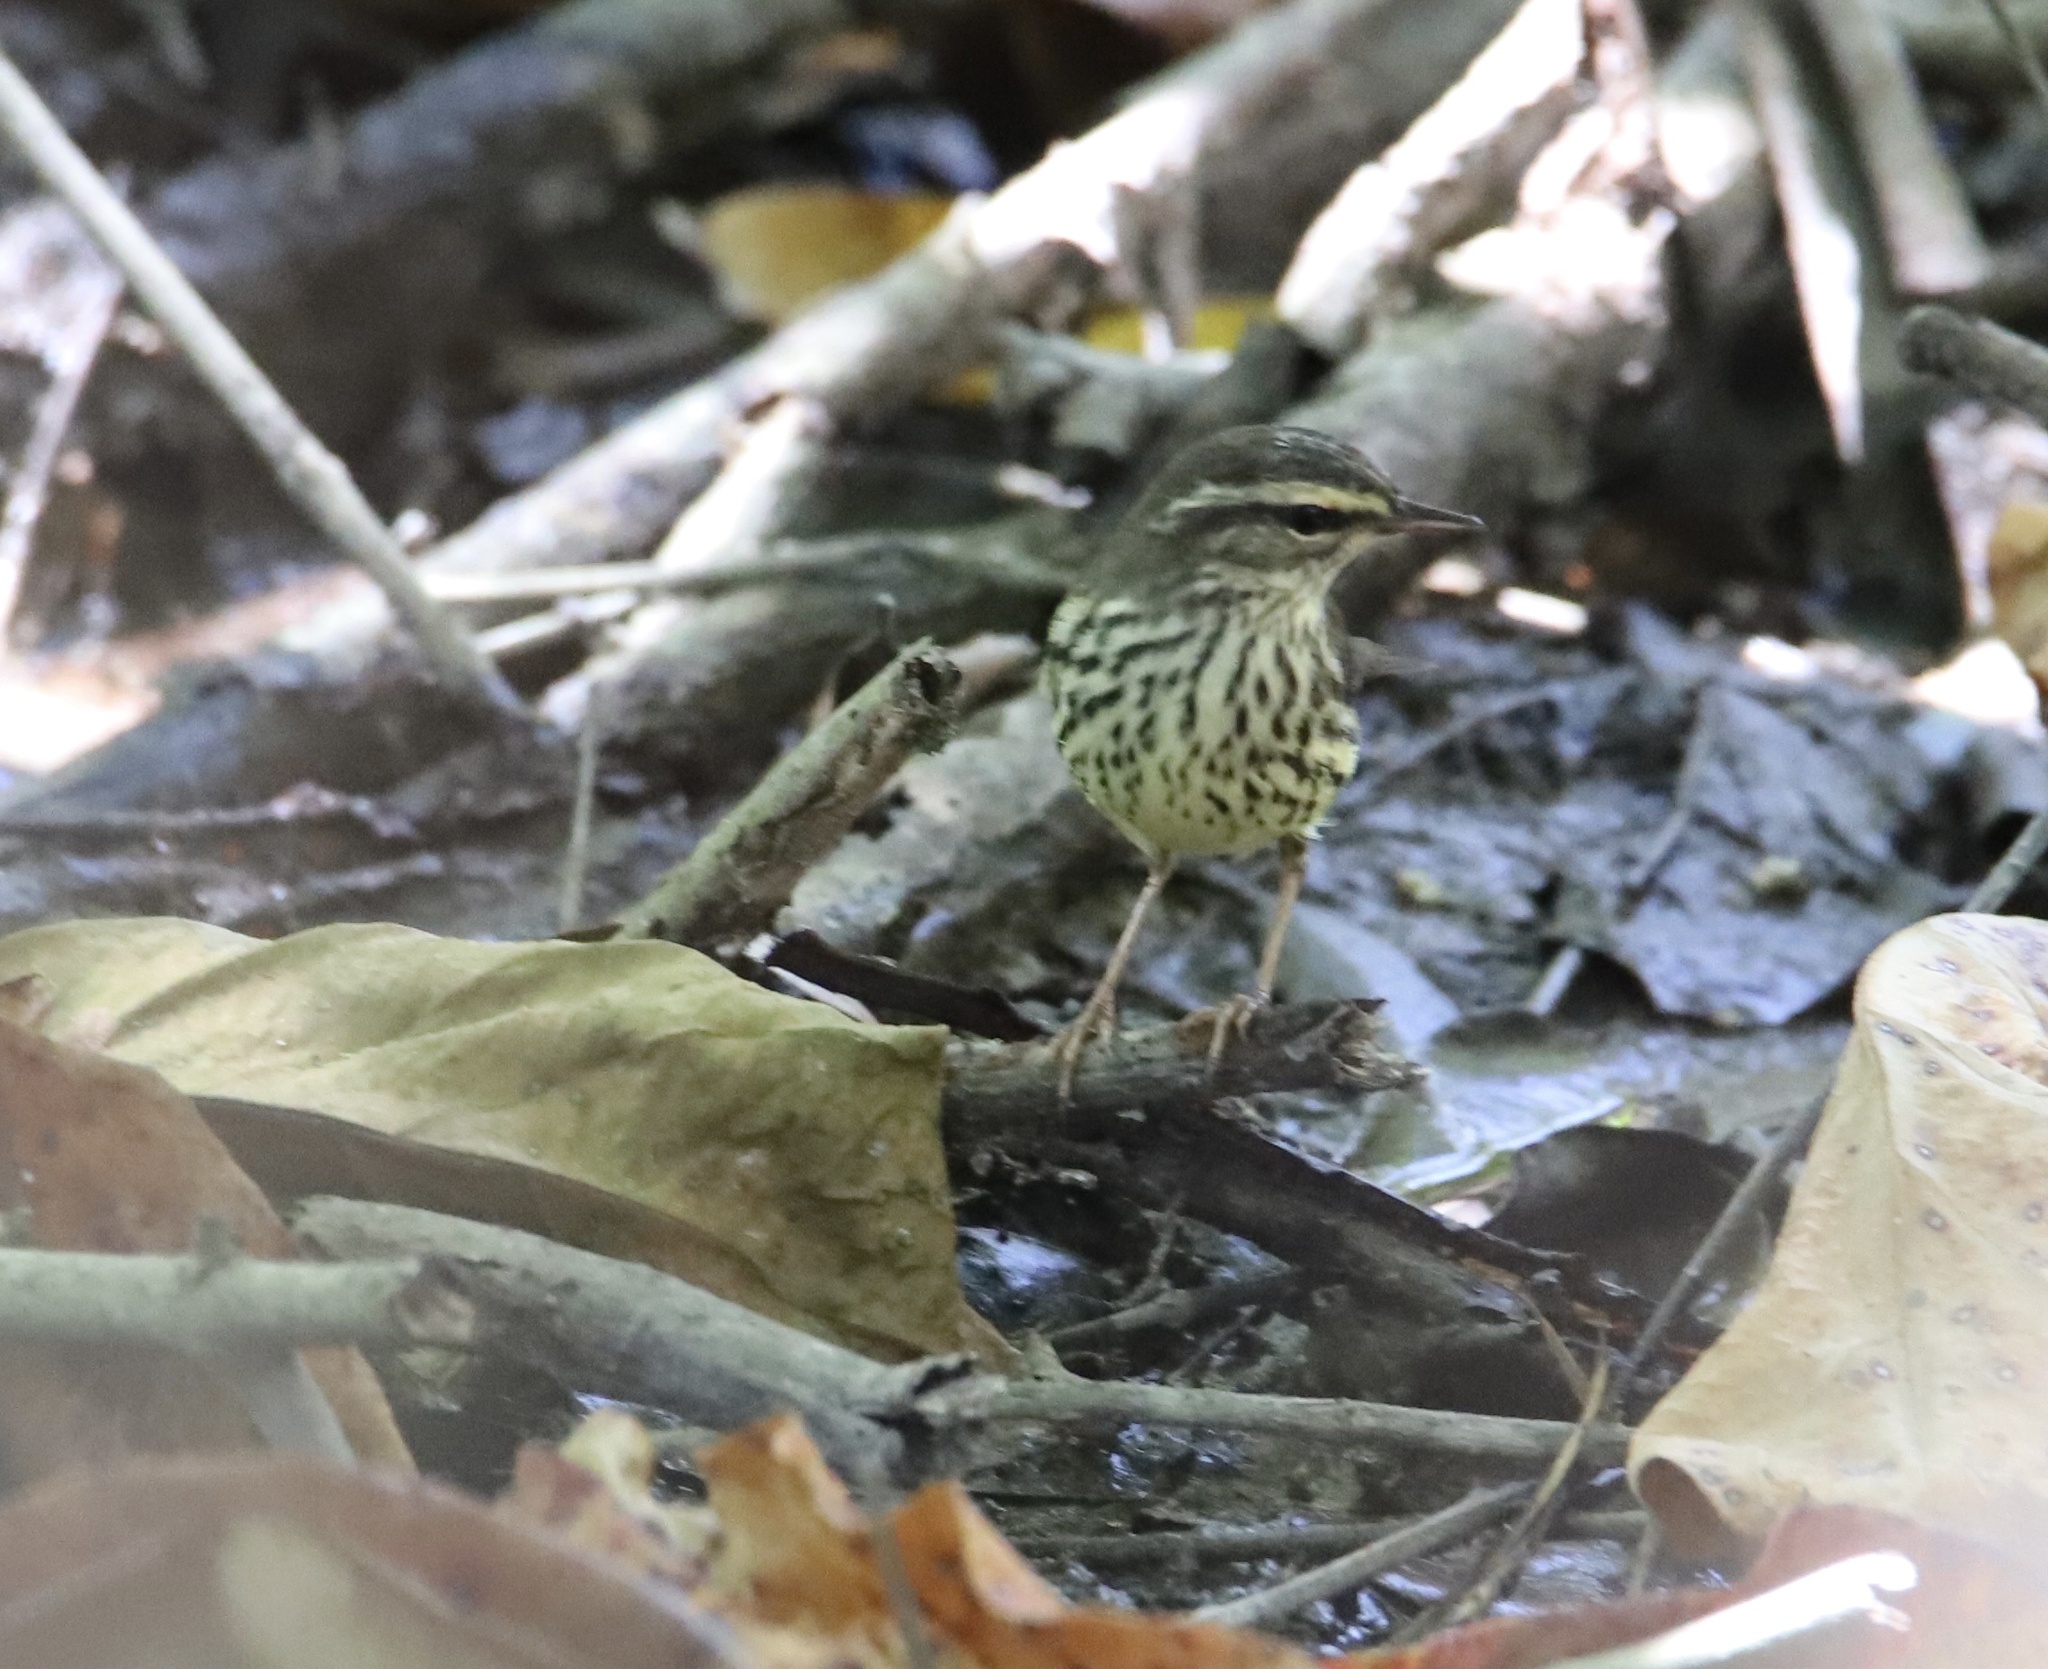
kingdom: Animalia
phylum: Chordata
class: Aves
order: Passeriformes
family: Parulidae
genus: Parkesia
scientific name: Parkesia noveboracensis
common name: Northern waterthrush
